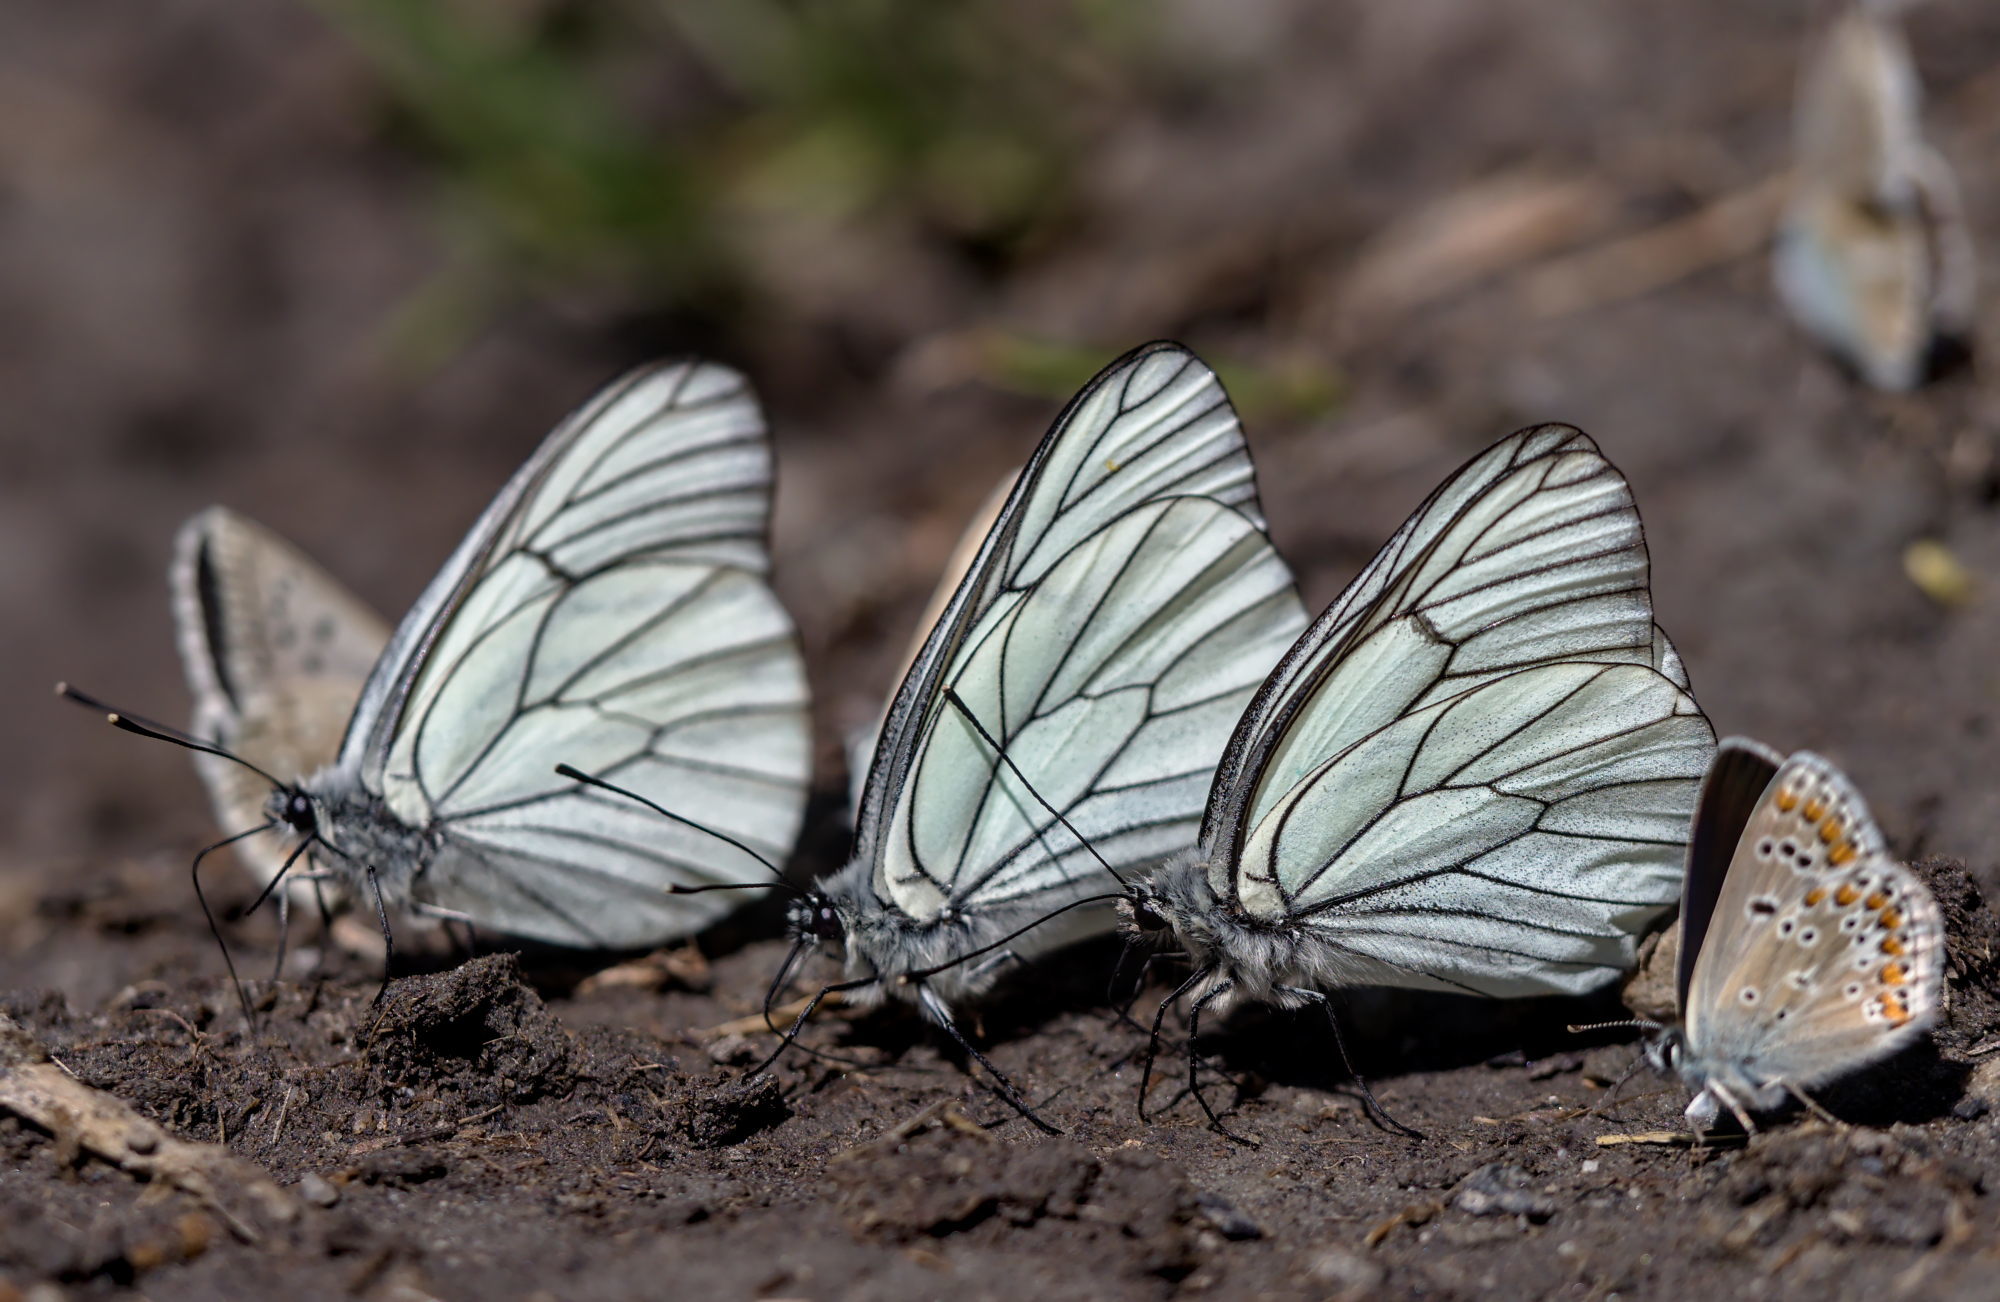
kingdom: Animalia
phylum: Arthropoda
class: Insecta
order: Lepidoptera
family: Pieridae
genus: Aporia
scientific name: Aporia crataegi
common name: Black-veined white
